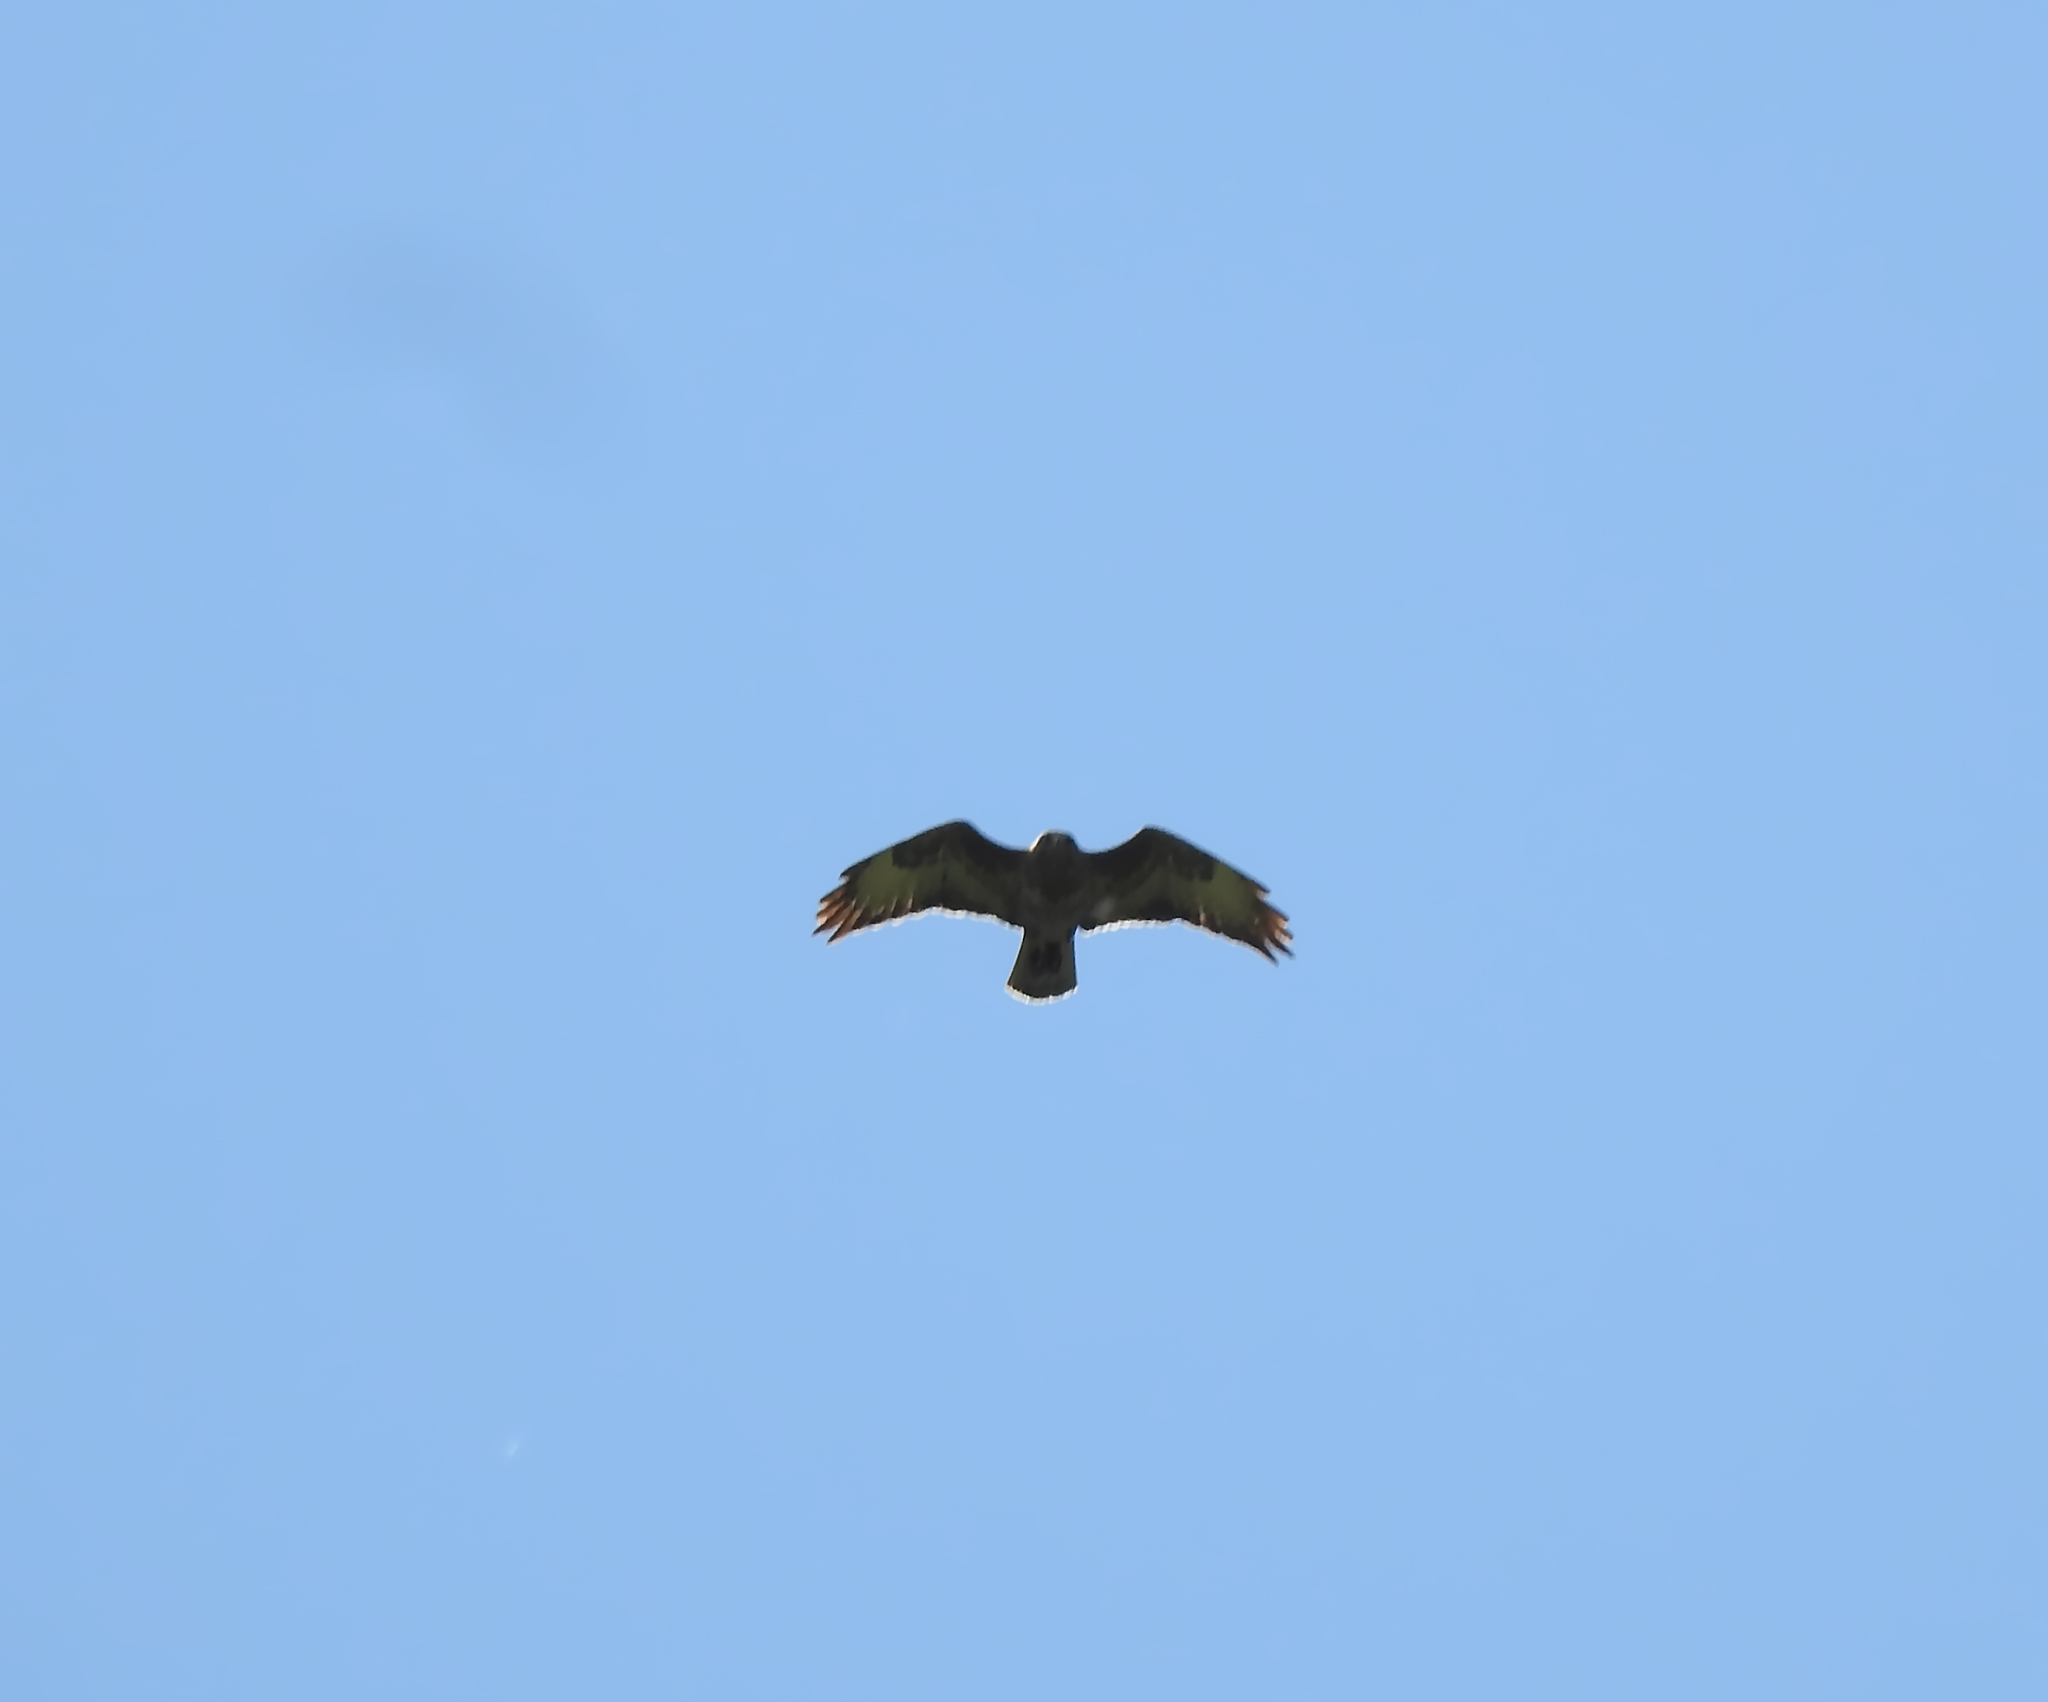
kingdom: Animalia
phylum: Chordata
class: Aves
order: Accipitriformes
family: Accipitridae
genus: Buteo
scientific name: Buteo buteo
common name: Common buzzard
